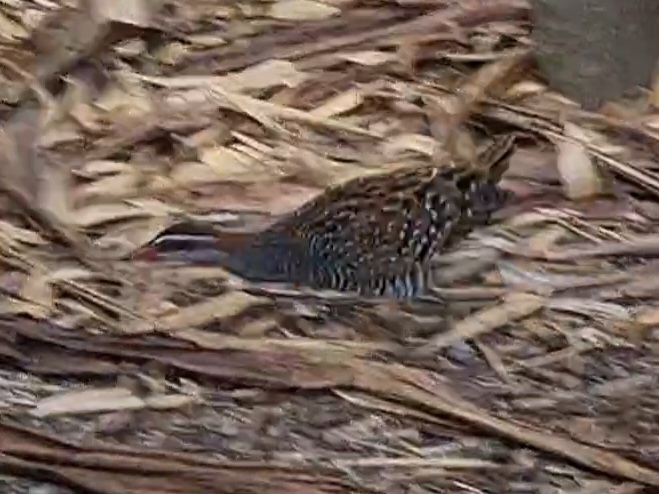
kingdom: Animalia
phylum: Chordata
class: Aves
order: Gruiformes
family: Rallidae
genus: Gallirallus
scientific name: Gallirallus philippensis
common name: Buff-banded rail
